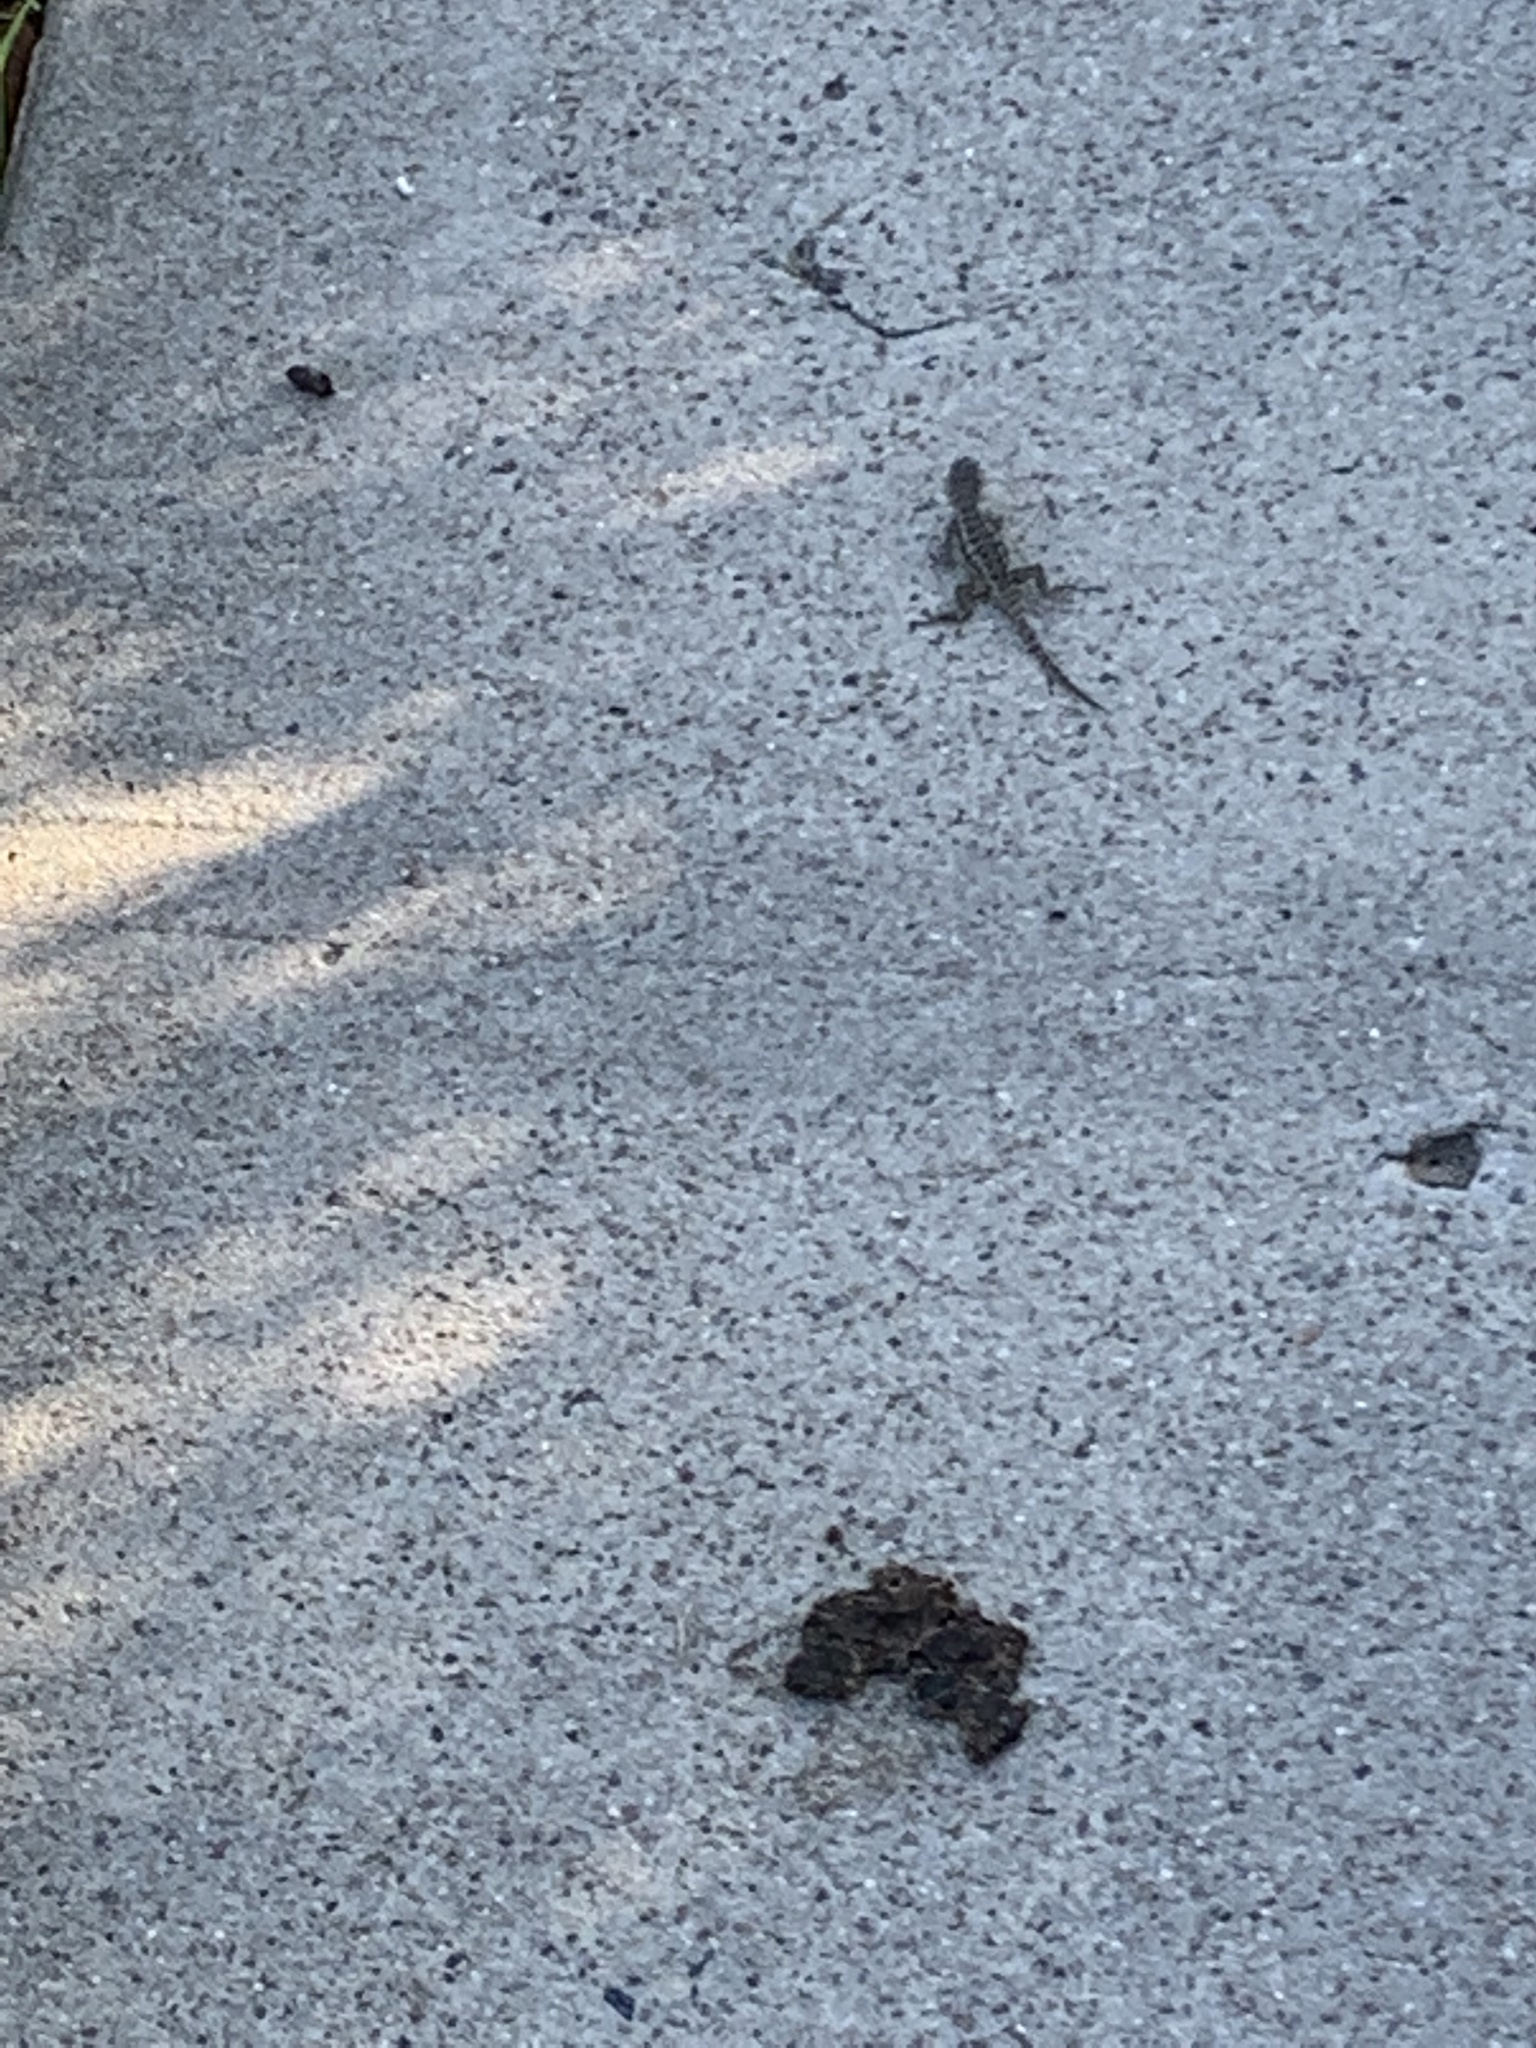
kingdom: Animalia
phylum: Chordata
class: Squamata
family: Phrynosomatidae
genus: Sceloporus
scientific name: Sceloporus occidentalis
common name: Western fence lizard
